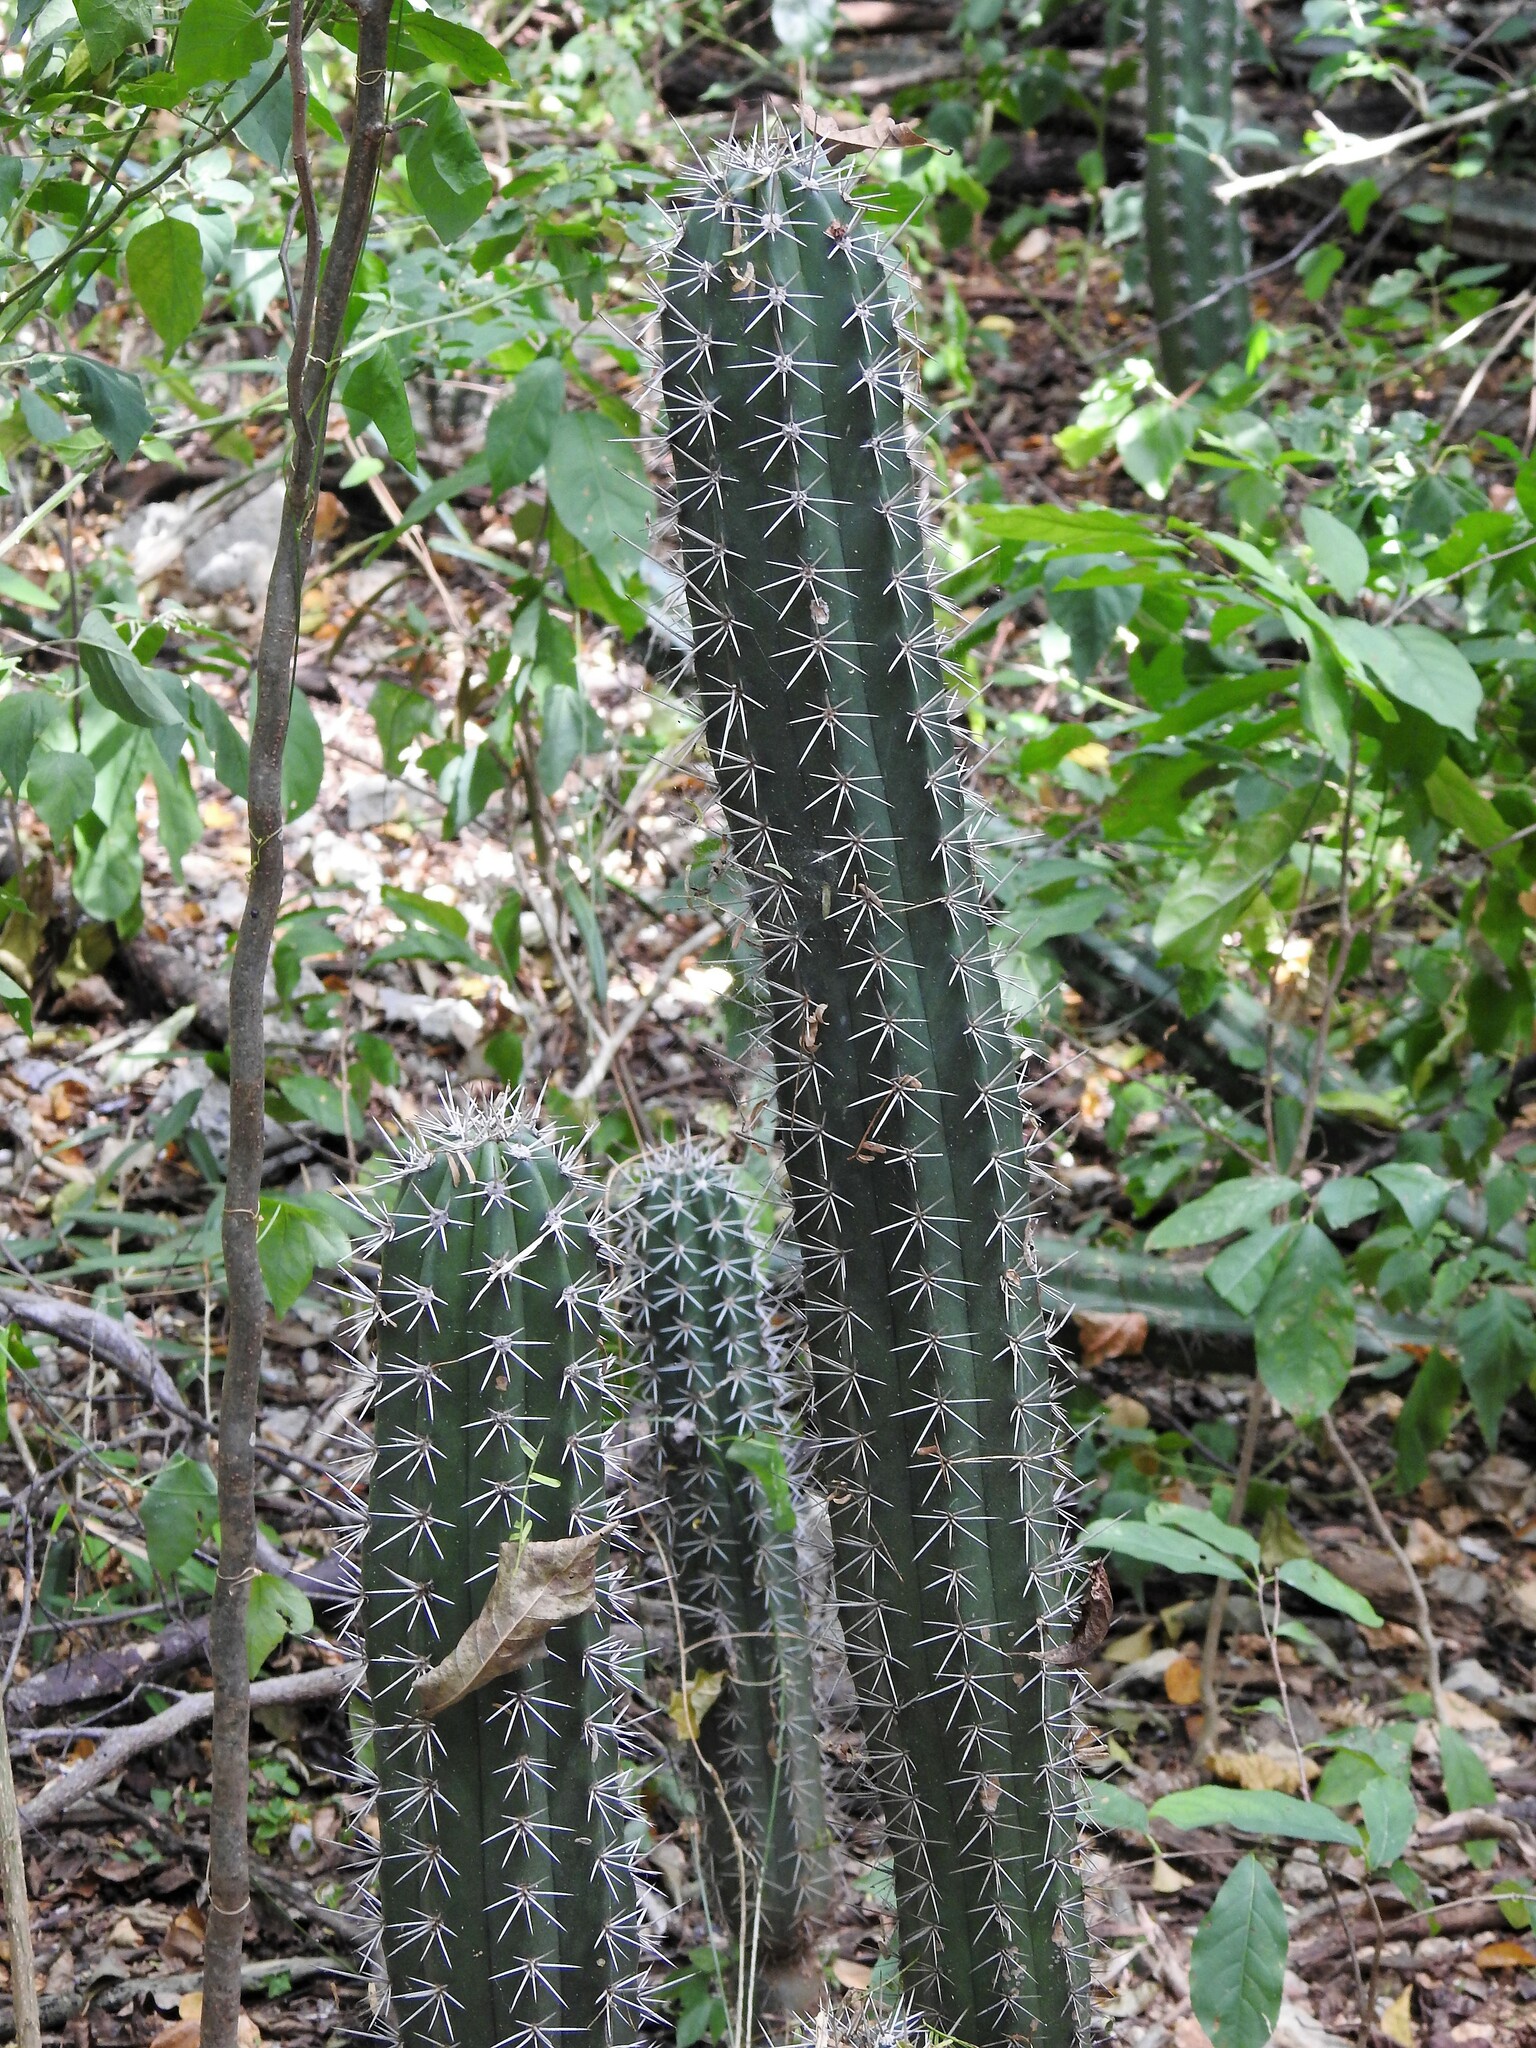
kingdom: Plantae
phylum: Tracheophyta
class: Magnoliopsida
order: Caryophyllales
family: Cactaceae
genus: Stenocereus
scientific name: Stenocereus griseus
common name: Tall candelabra cactus
